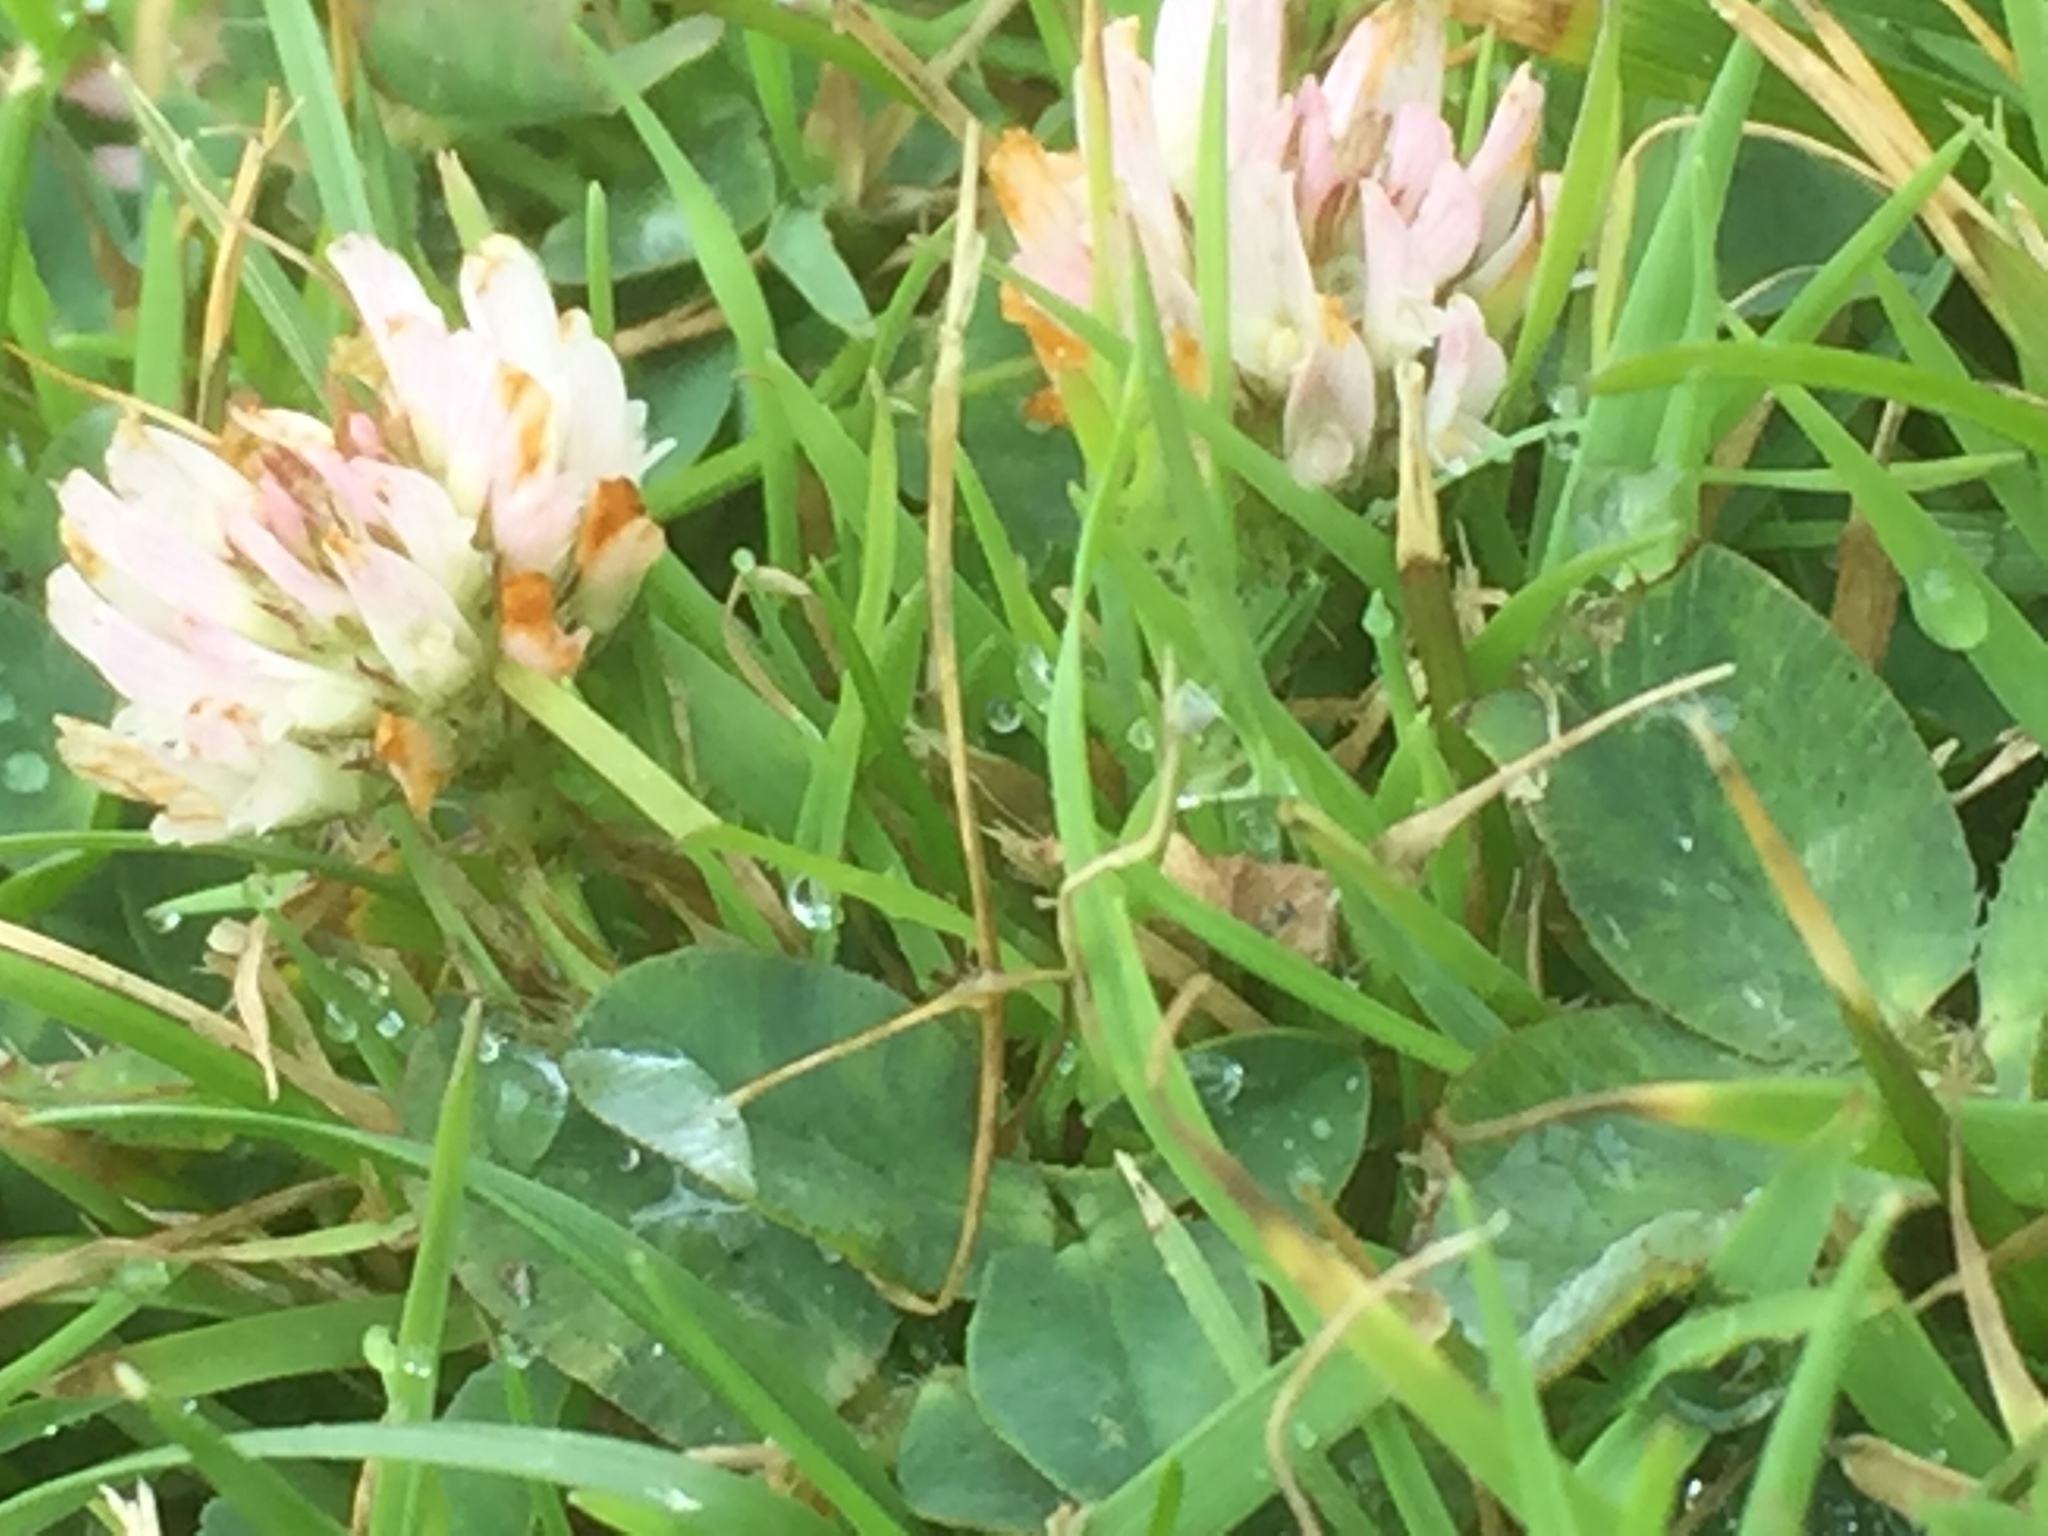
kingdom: Plantae
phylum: Tracheophyta
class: Magnoliopsida
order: Fabales
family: Fabaceae
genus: Trifolium
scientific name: Trifolium fragiferum
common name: Strawberry clover
